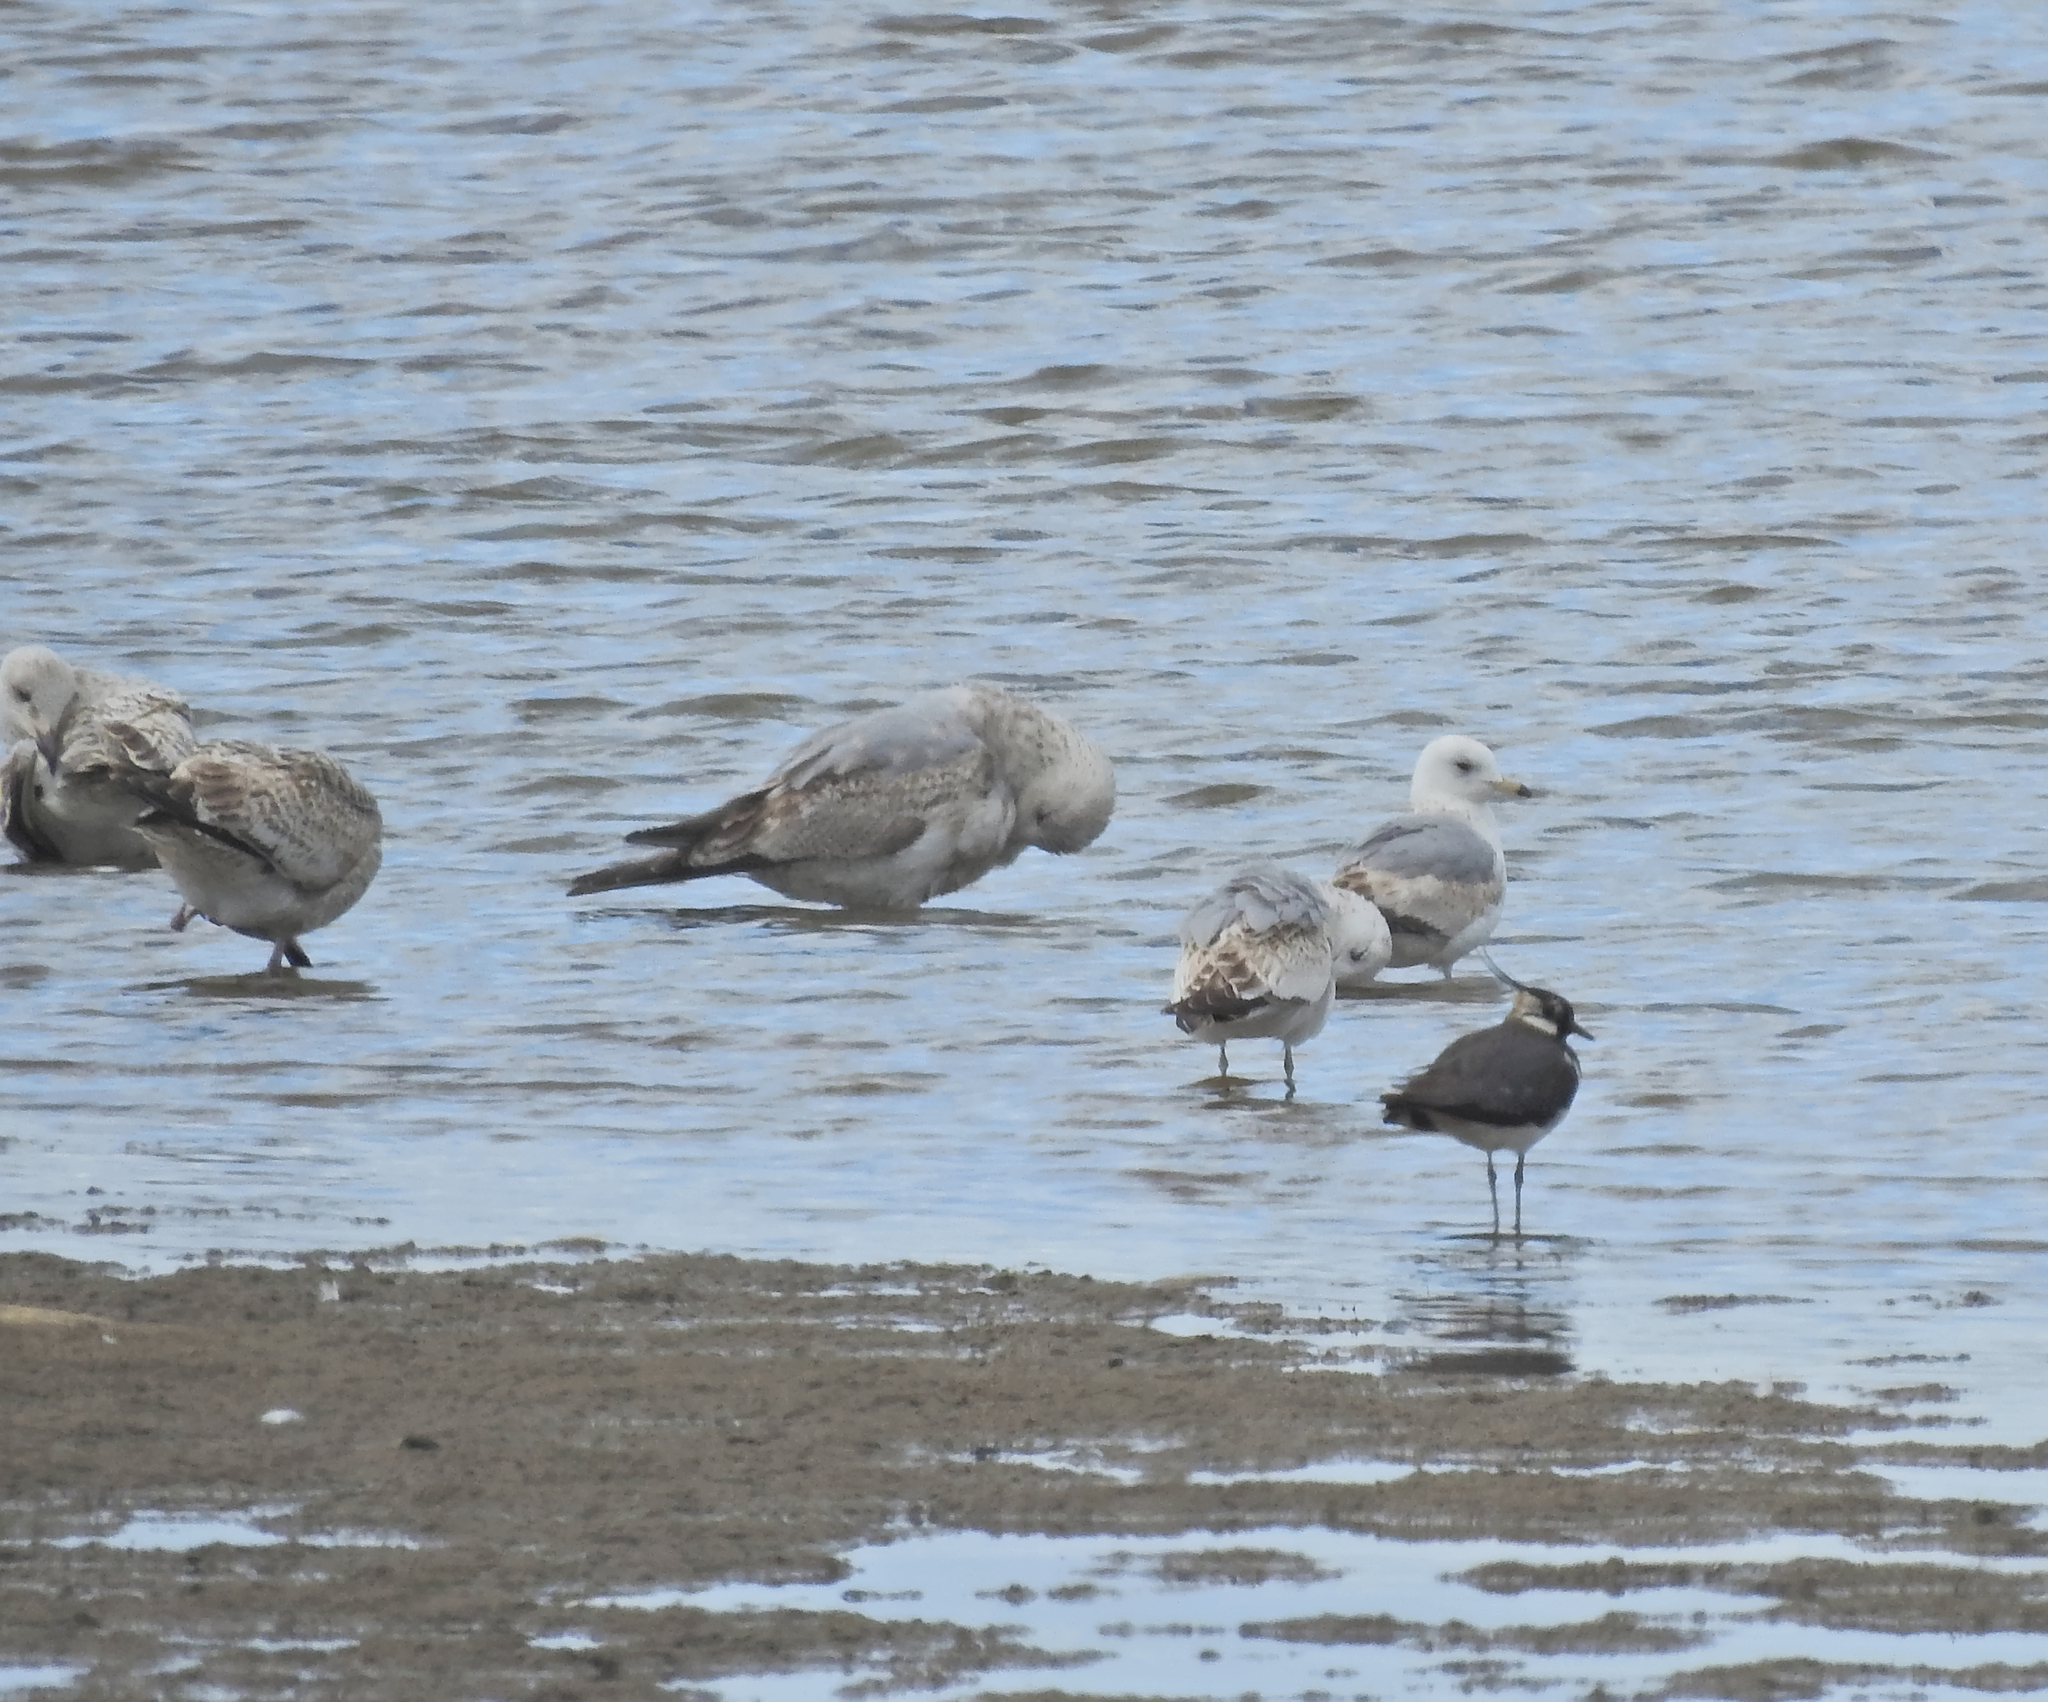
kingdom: Animalia
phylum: Chordata
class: Aves
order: Charadriiformes
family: Charadriidae
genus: Vanellus
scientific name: Vanellus vanellus
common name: Northern lapwing
